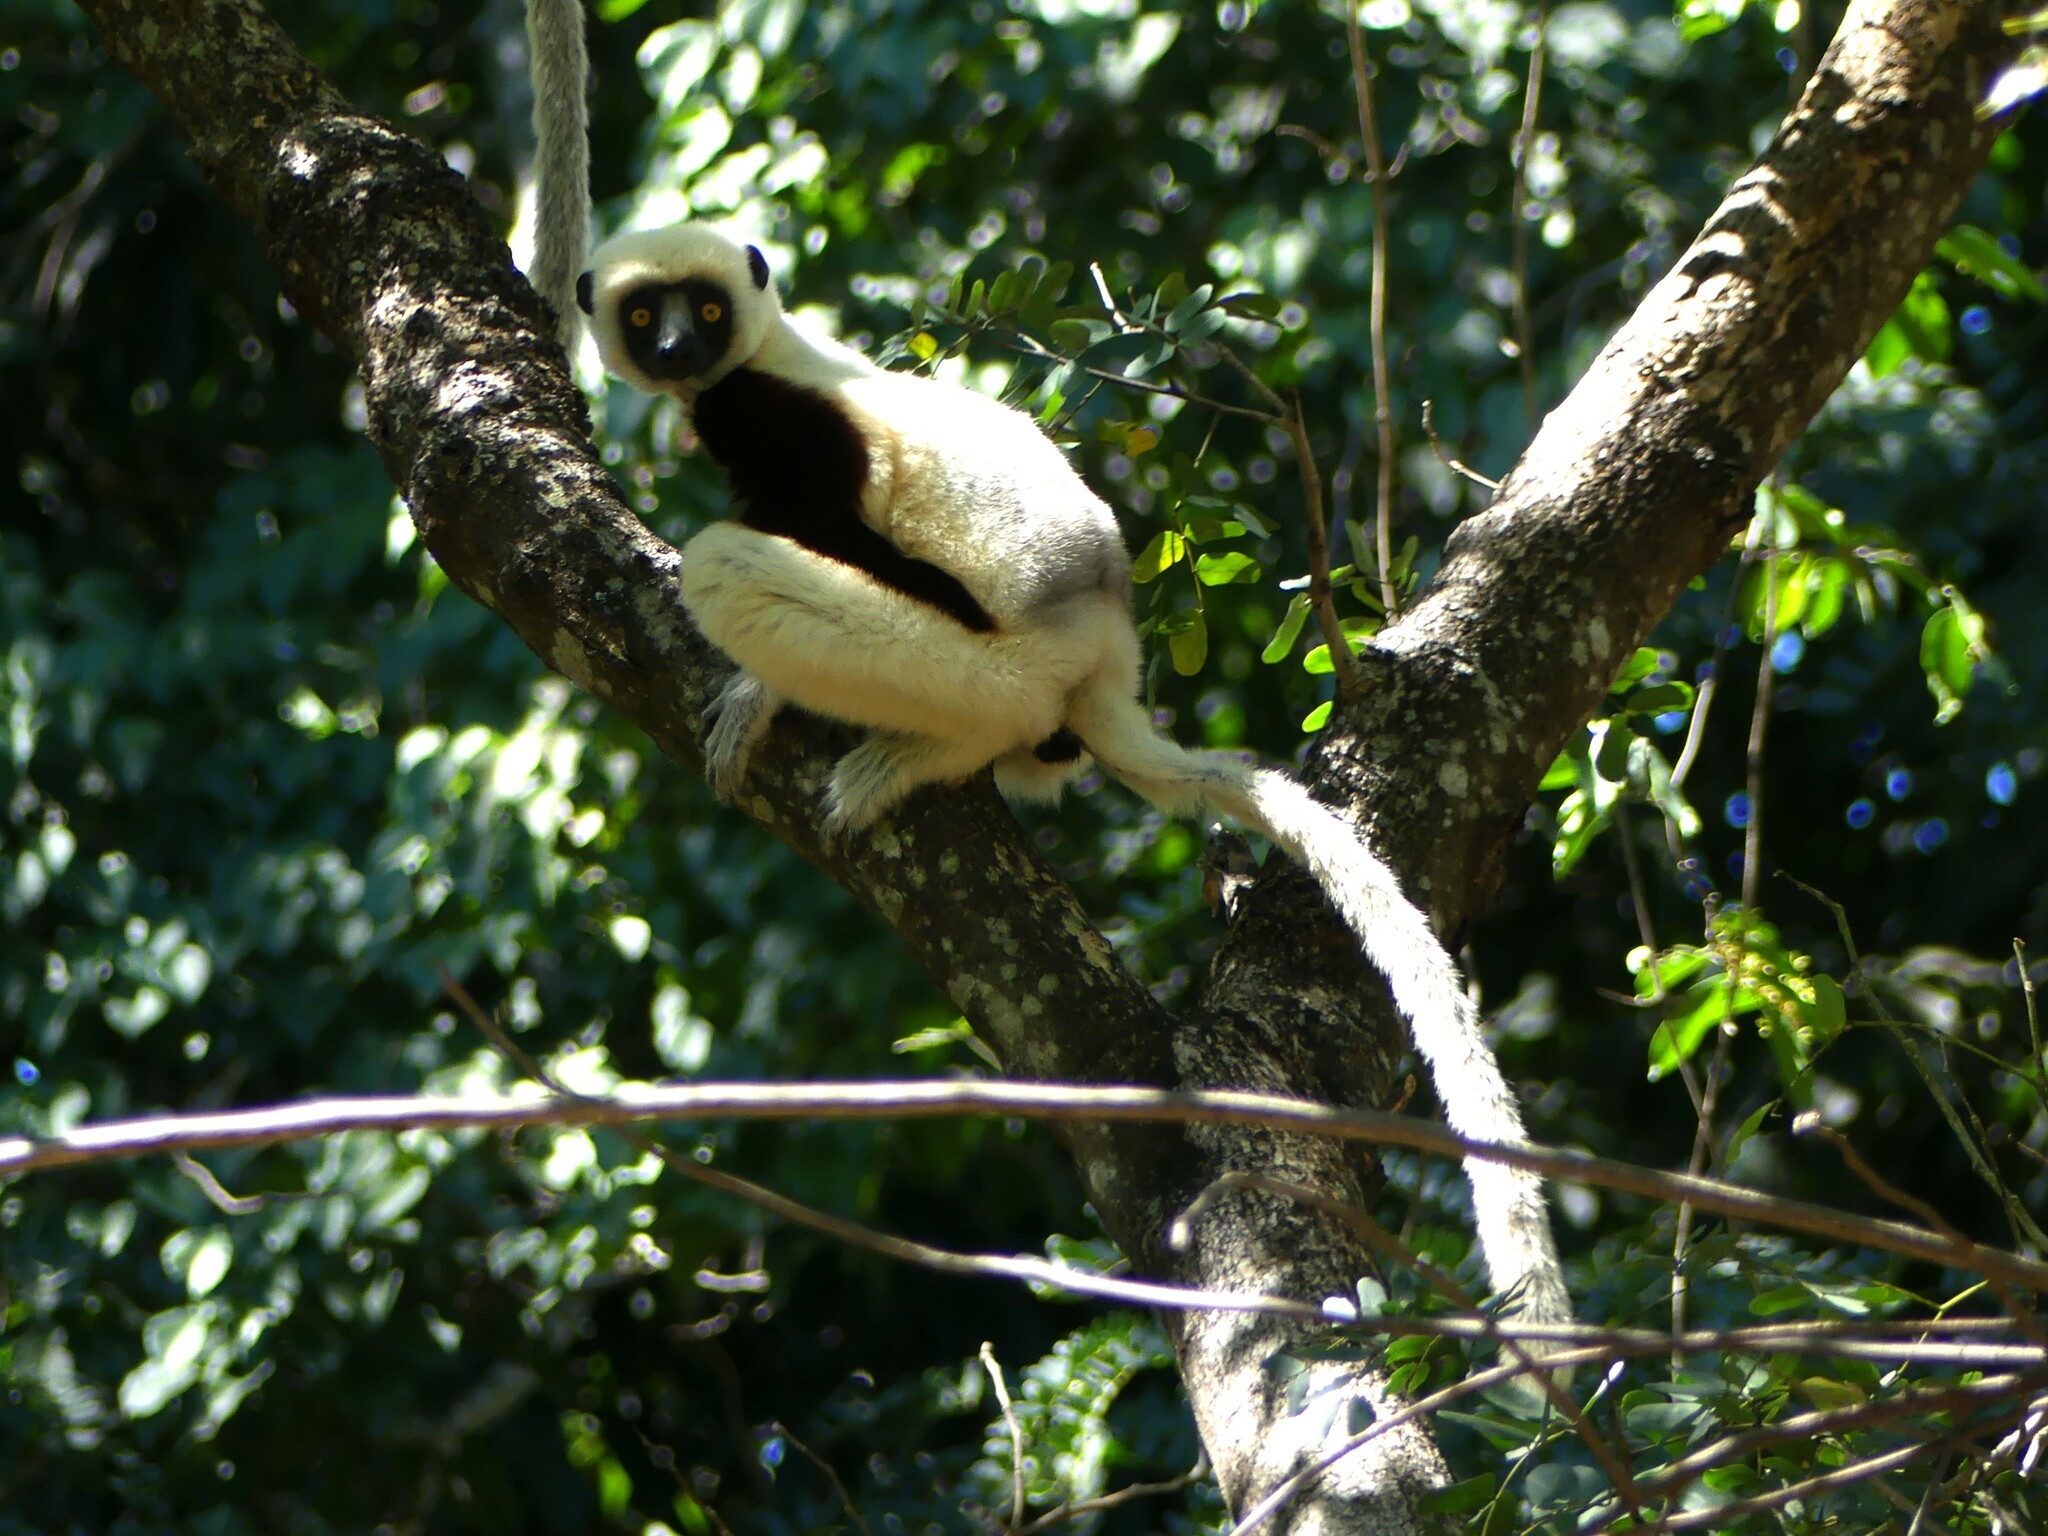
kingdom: Animalia
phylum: Chordata
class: Mammalia
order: Primates
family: Indriidae
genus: Propithecus
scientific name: Propithecus coquereli
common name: Coquerel's sifaka
